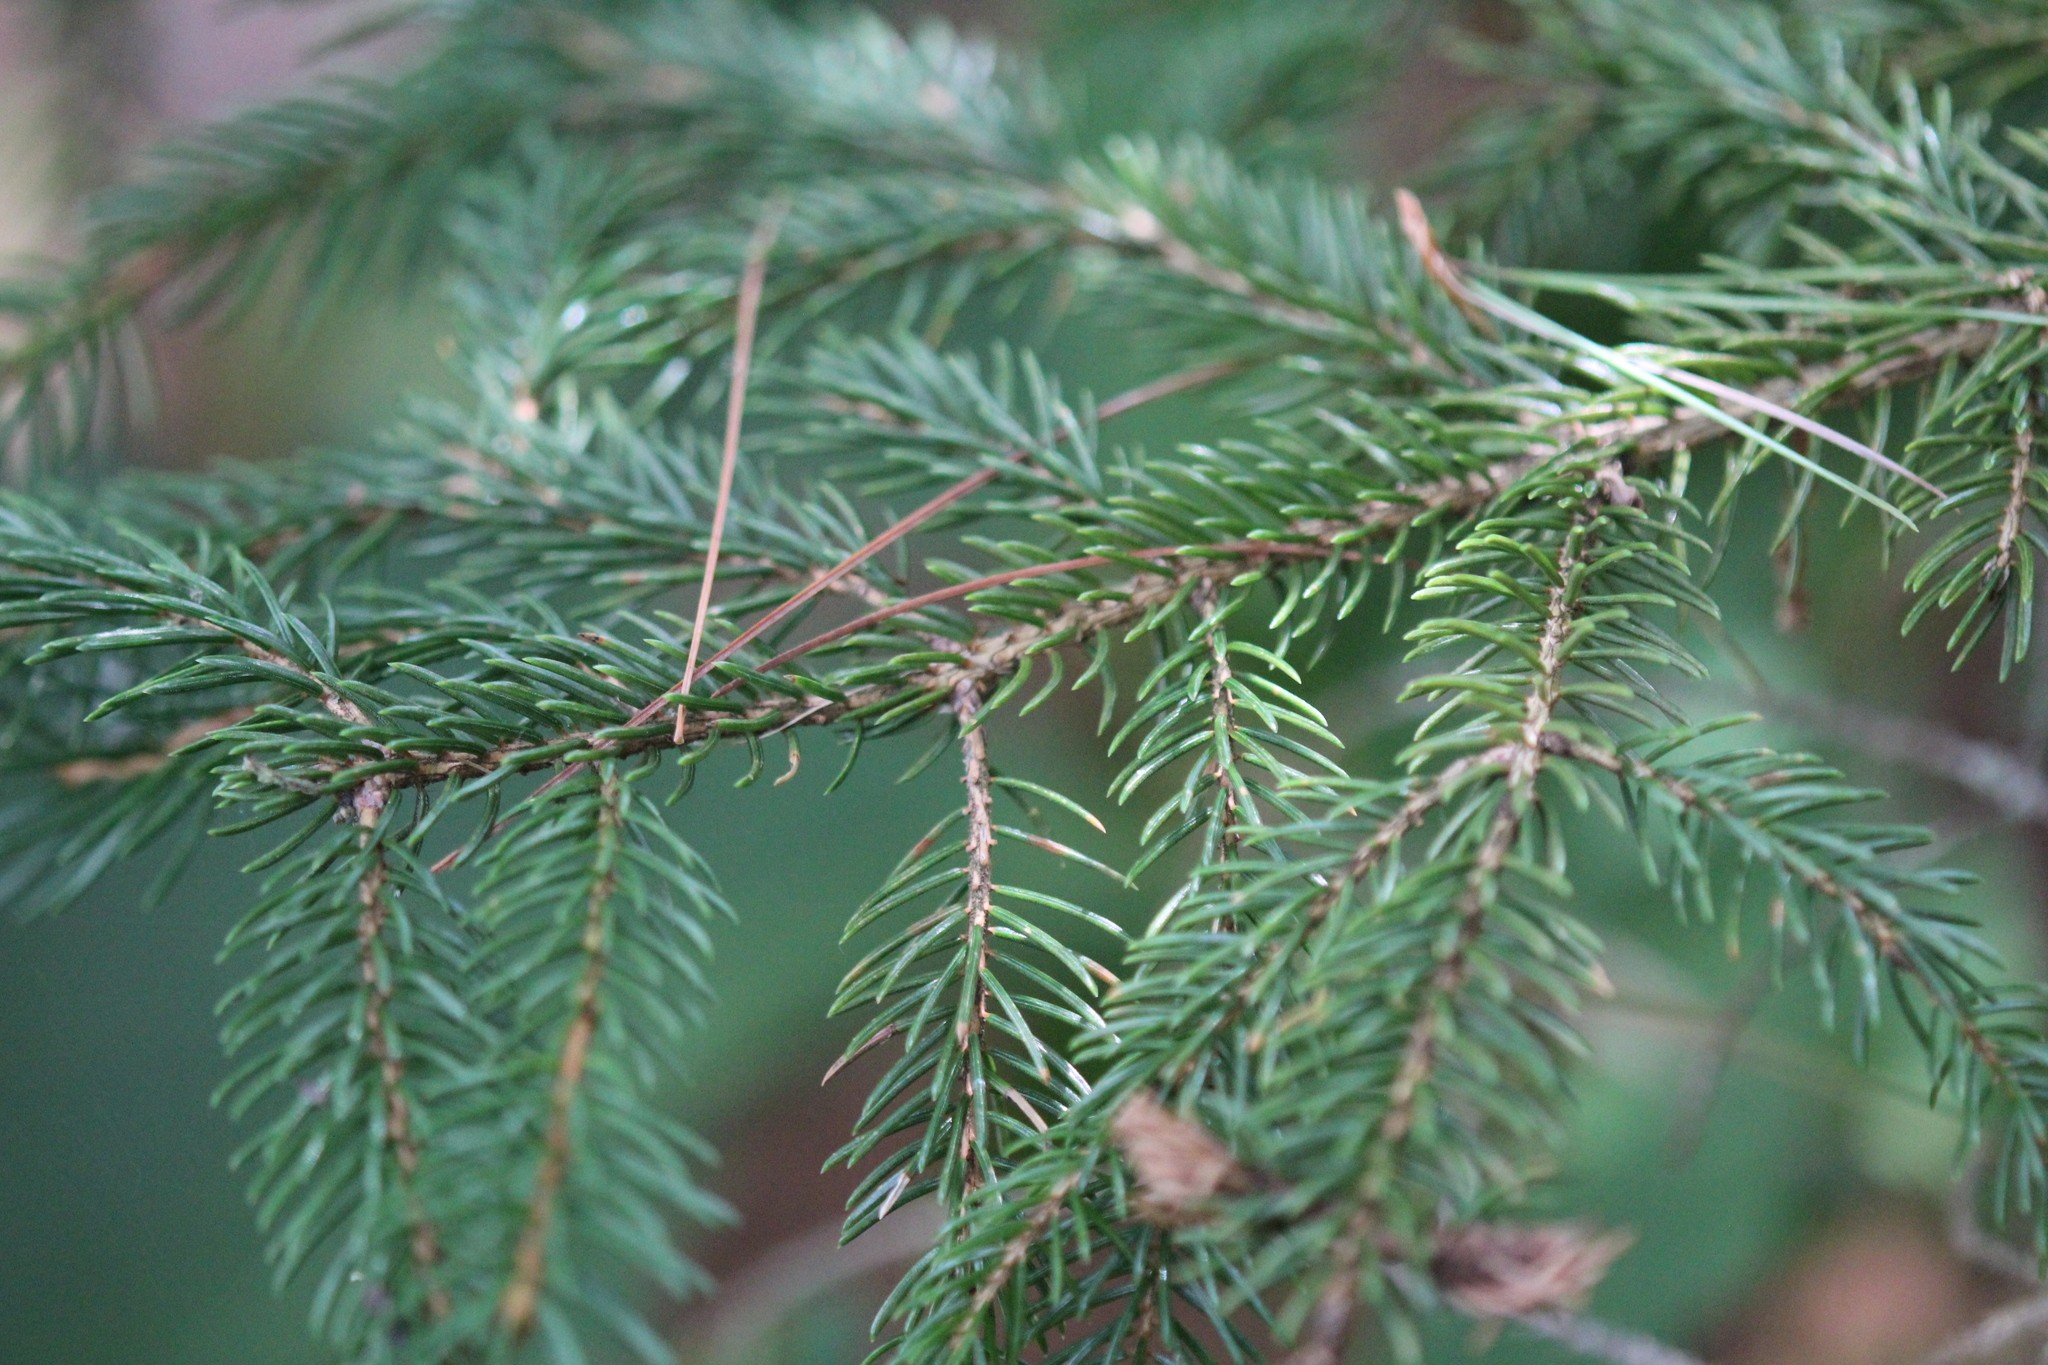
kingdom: Plantae
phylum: Tracheophyta
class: Pinopsida
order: Pinales
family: Pinaceae
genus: Picea
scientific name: Picea rubens
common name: Red spruce
